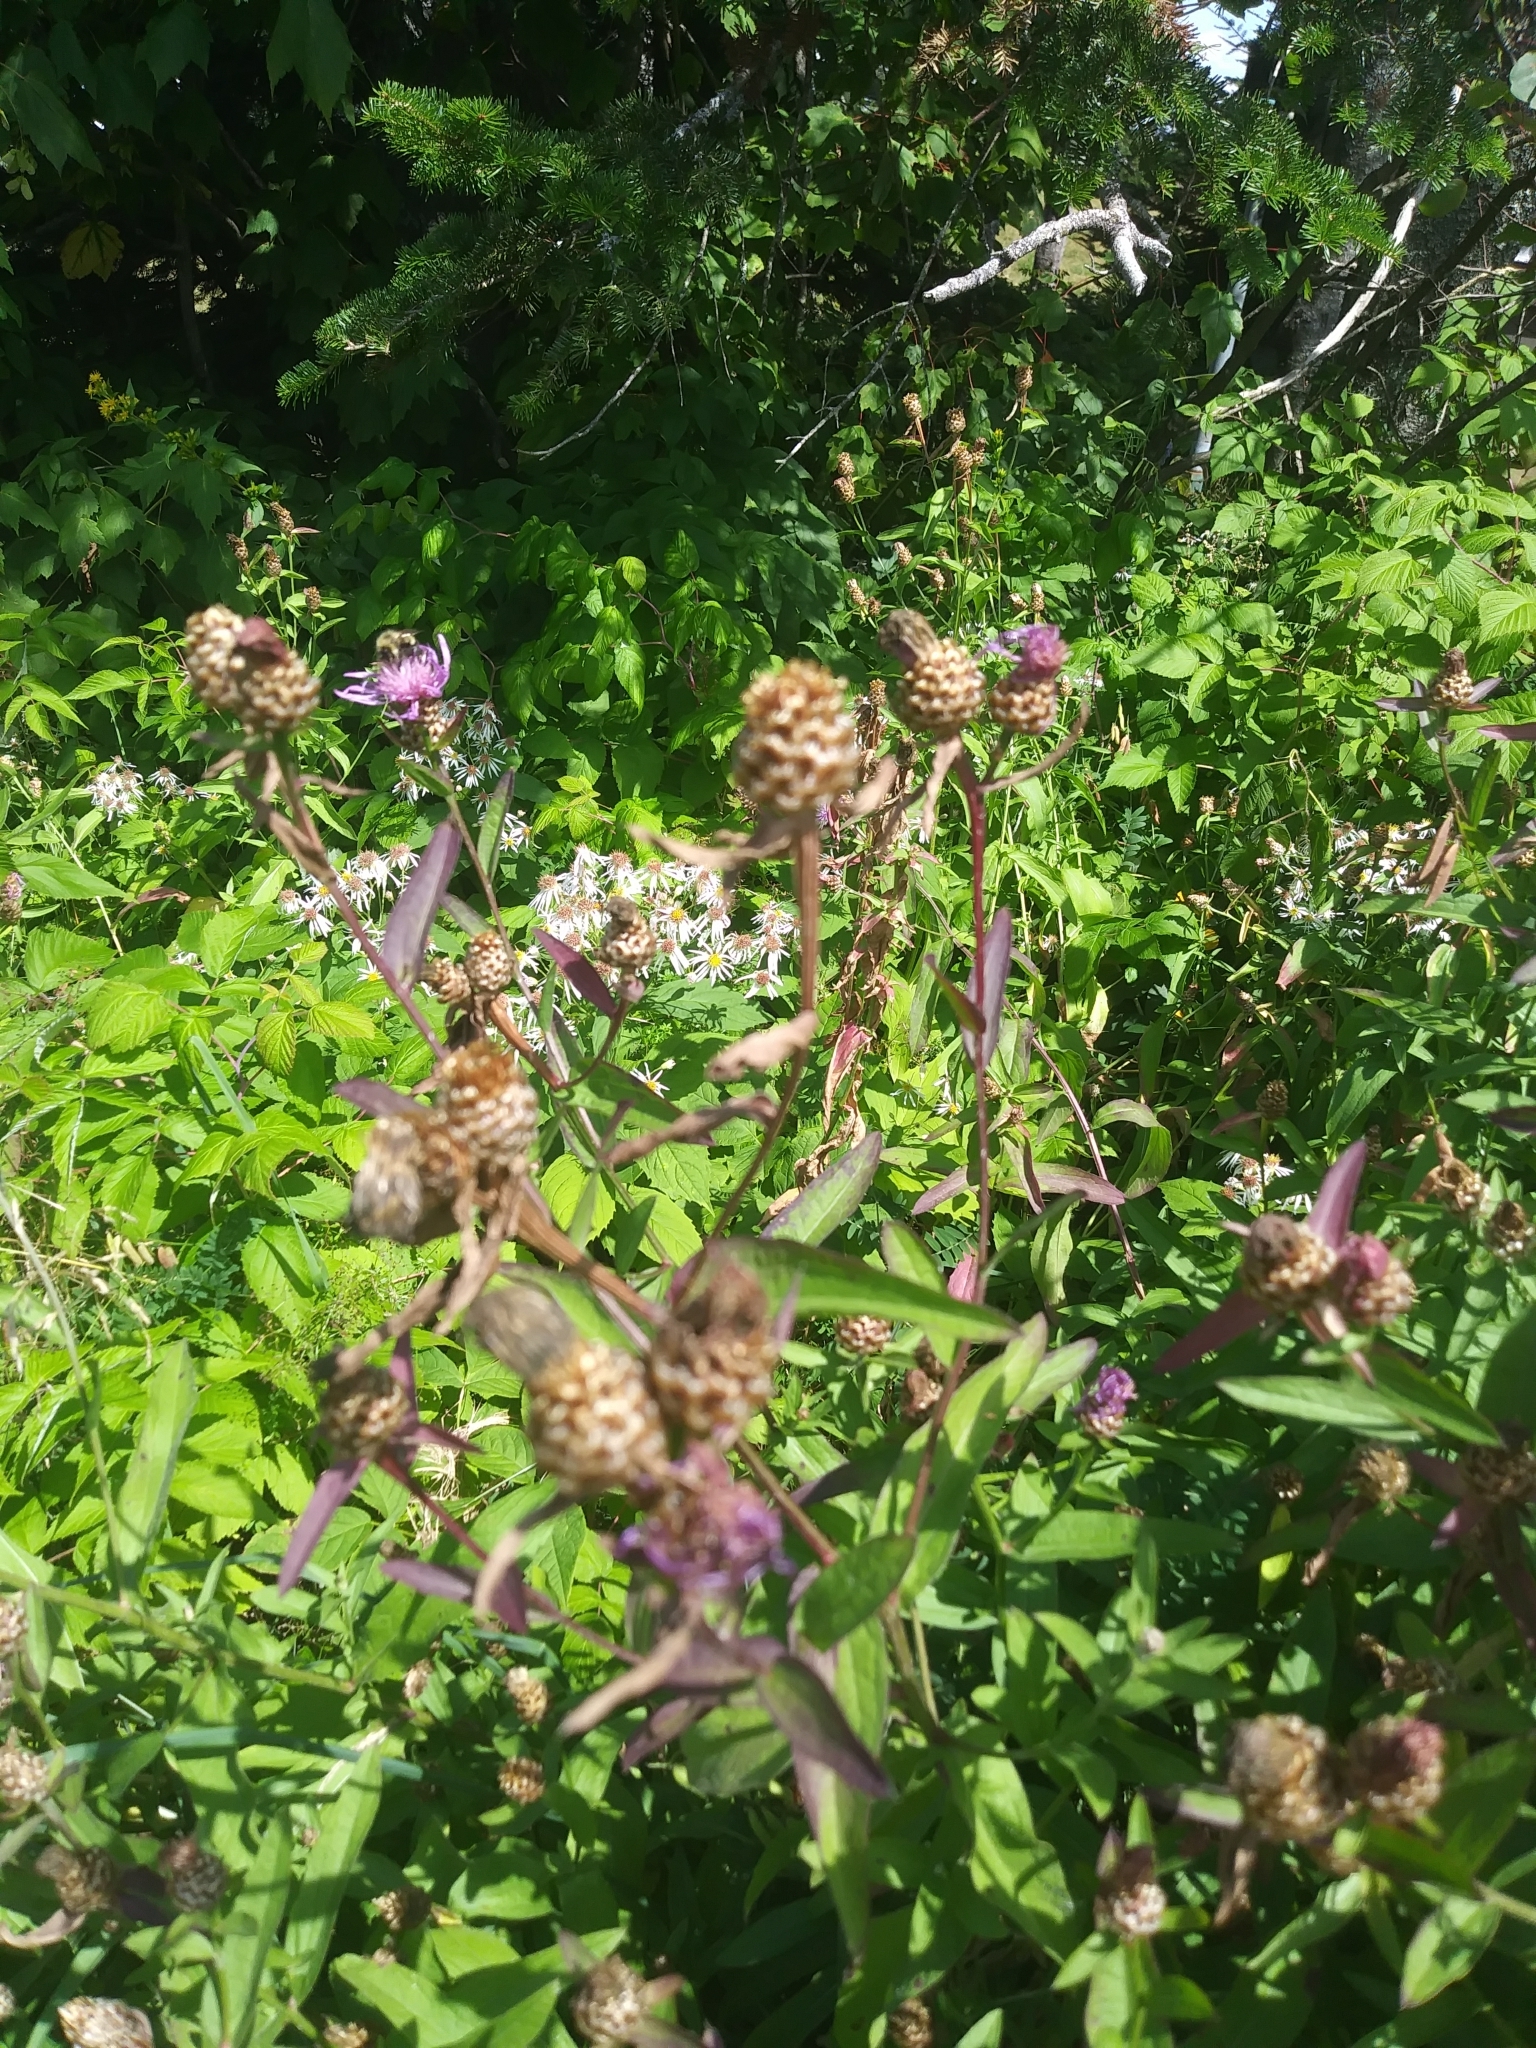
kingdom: Plantae
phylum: Tracheophyta
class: Magnoliopsida
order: Asterales
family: Asteraceae
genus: Centaurea
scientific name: Centaurea jacea
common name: Brown knapweed
